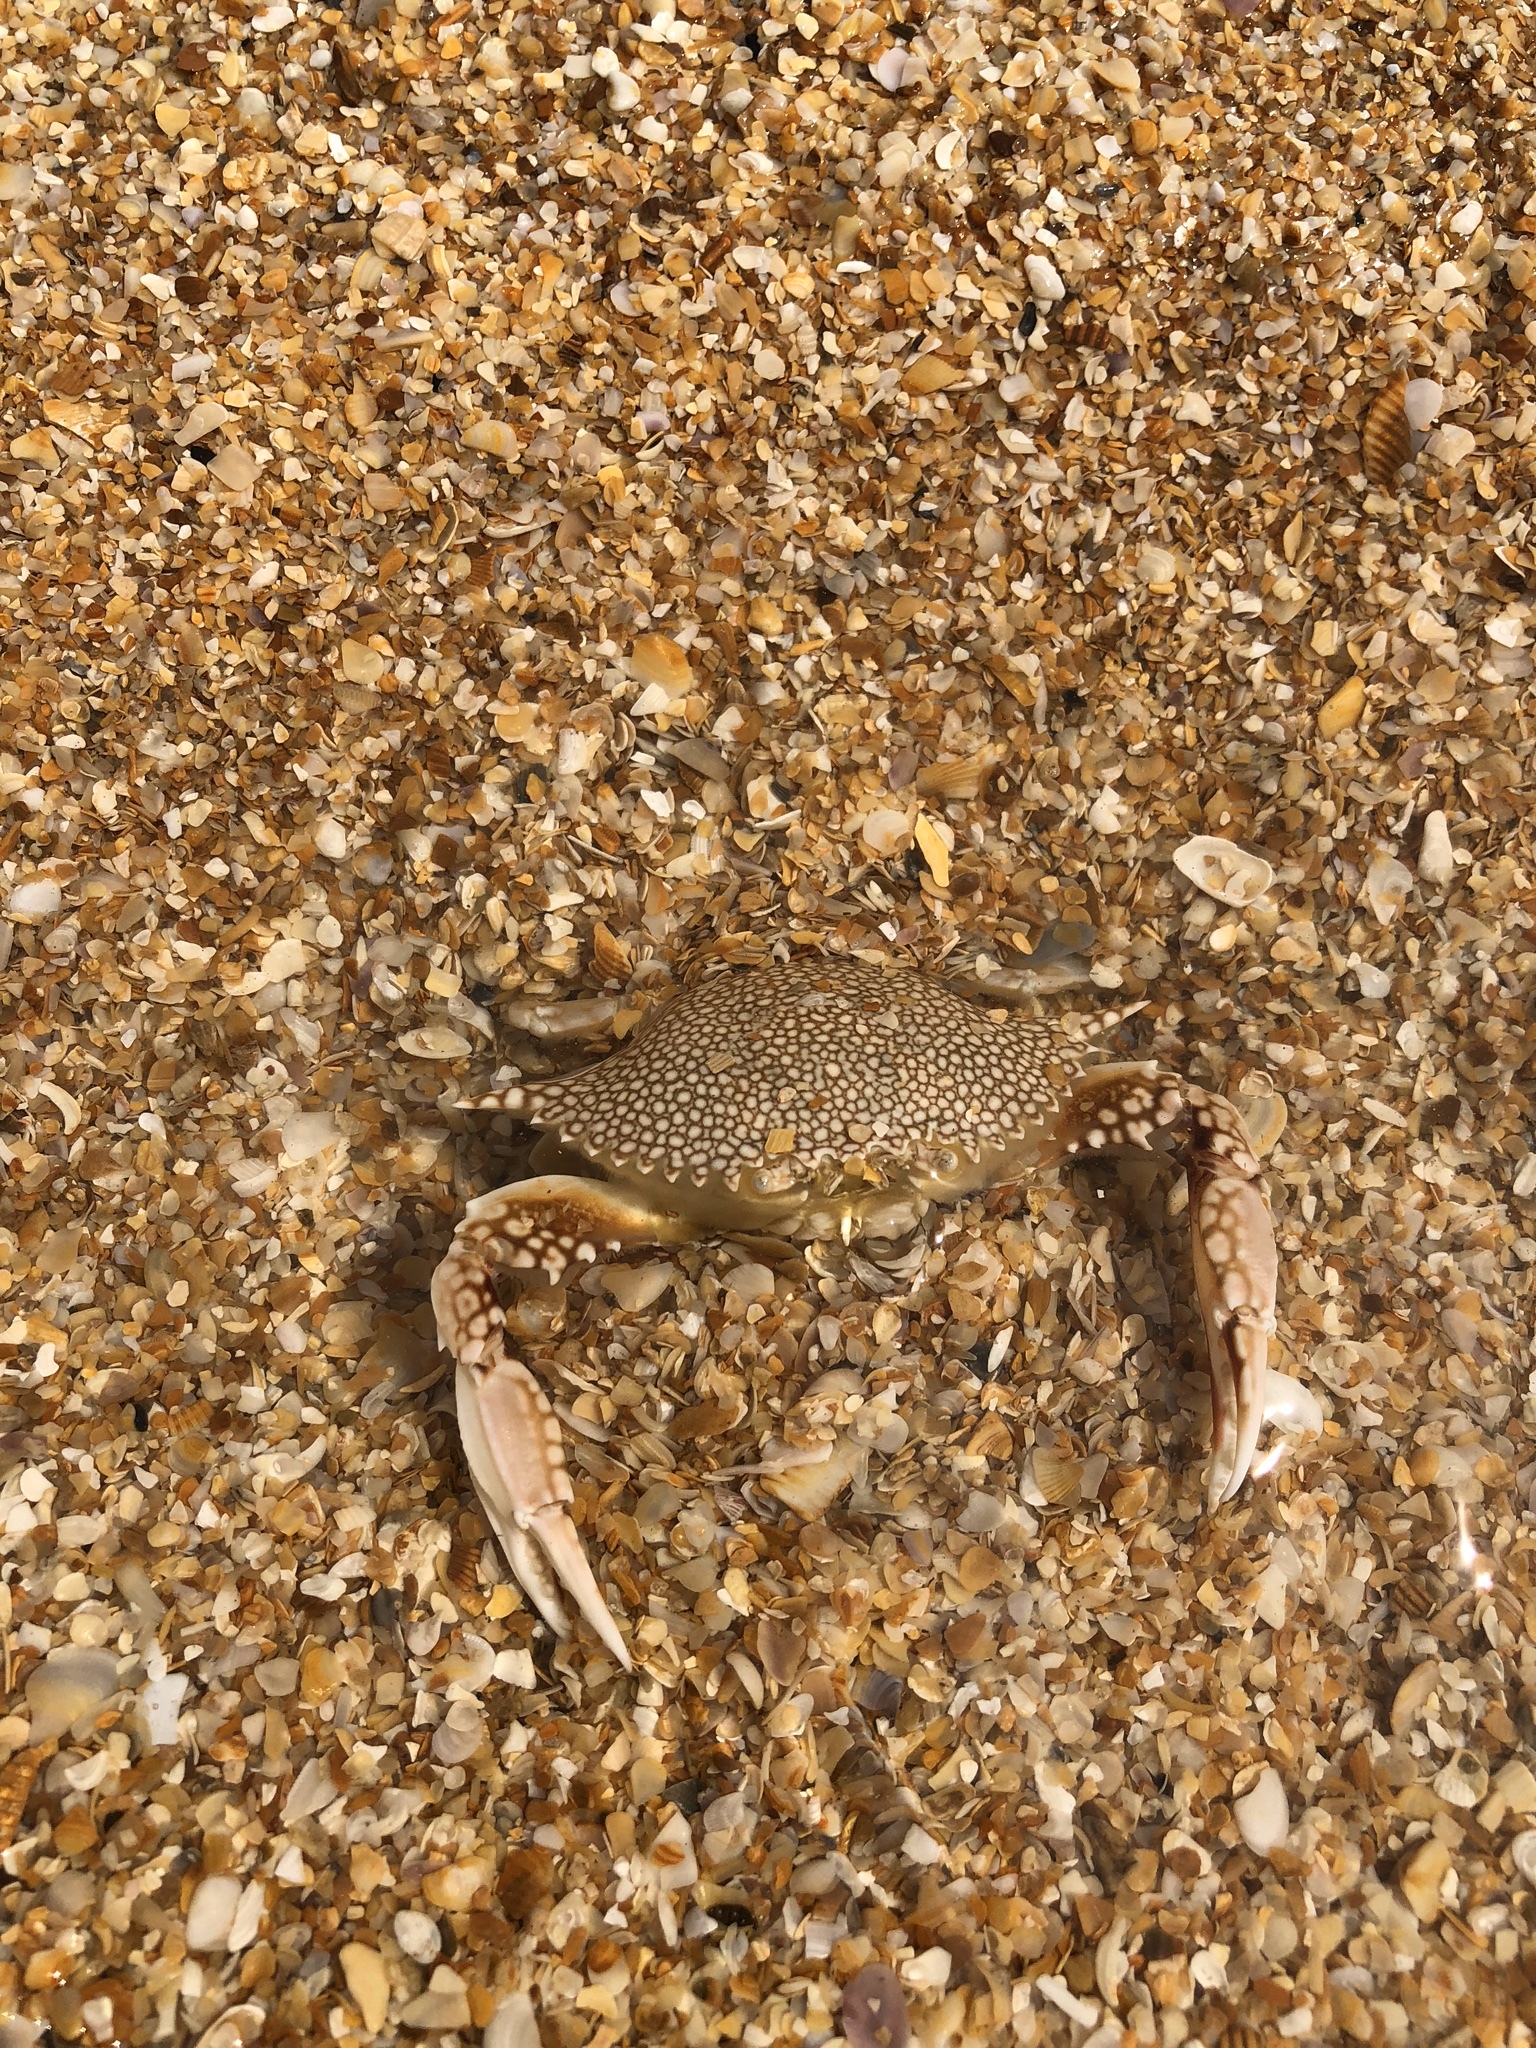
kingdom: Animalia
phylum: Arthropoda
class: Malacostraca
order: Decapoda
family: Portunidae
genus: Arenaeus
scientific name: Arenaeus cribrarius
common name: Speckled crab
